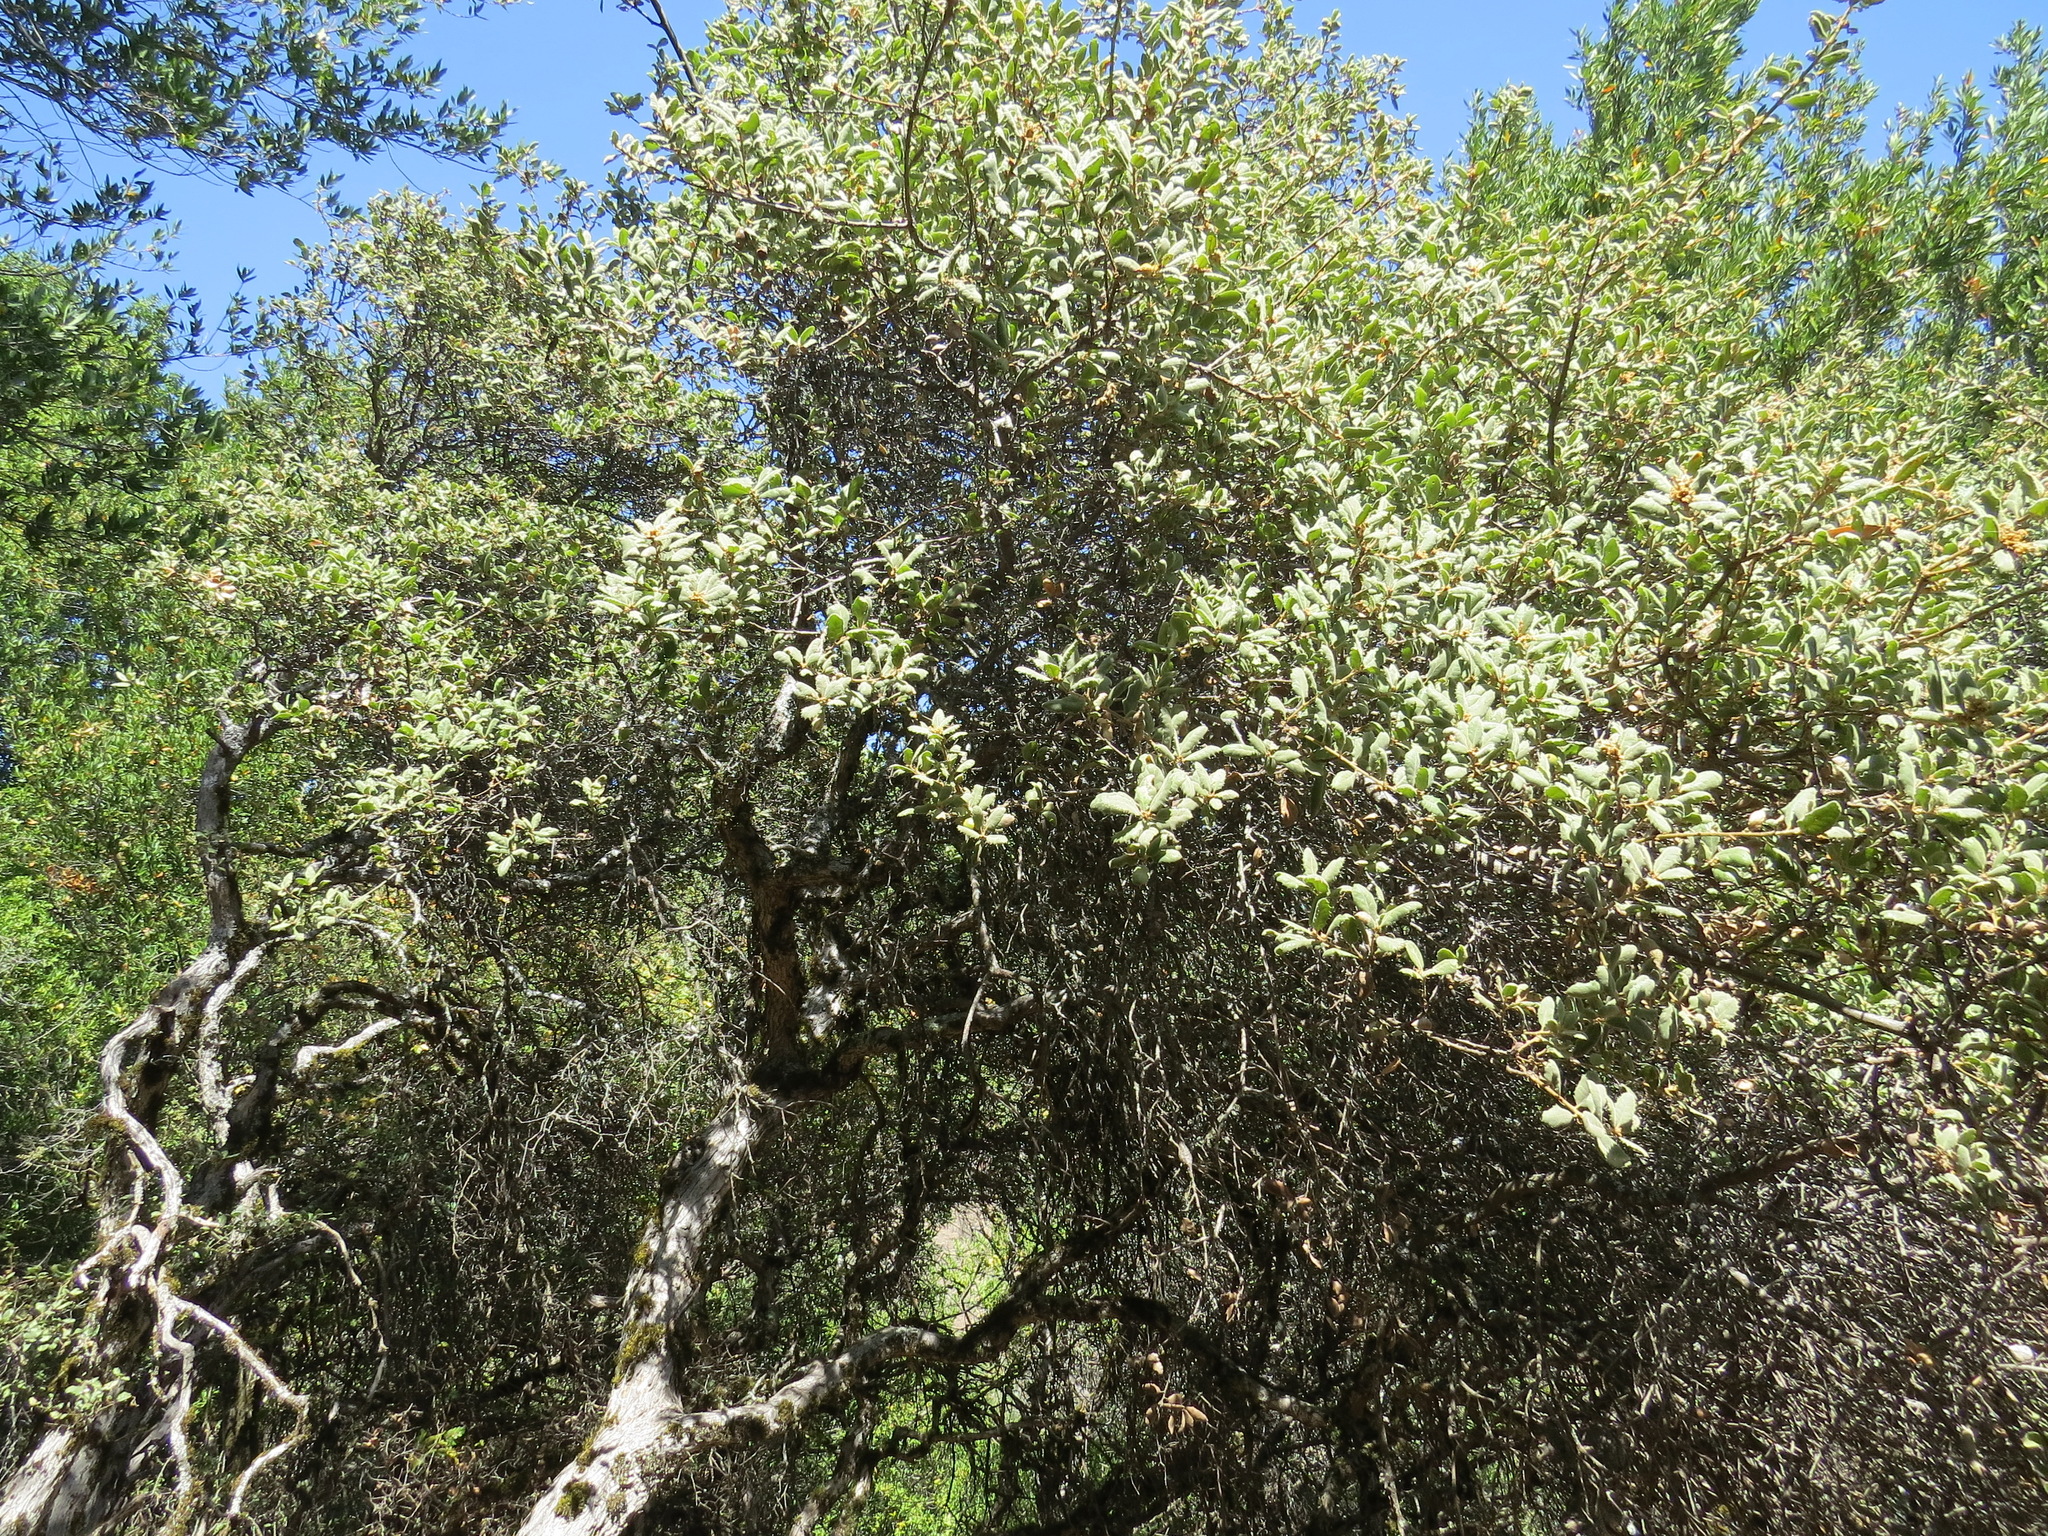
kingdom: Plantae
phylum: Tracheophyta
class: Magnoliopsida
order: Fagales
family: Fagaceae
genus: Quercus
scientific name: Quercus durata
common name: Leather oak
